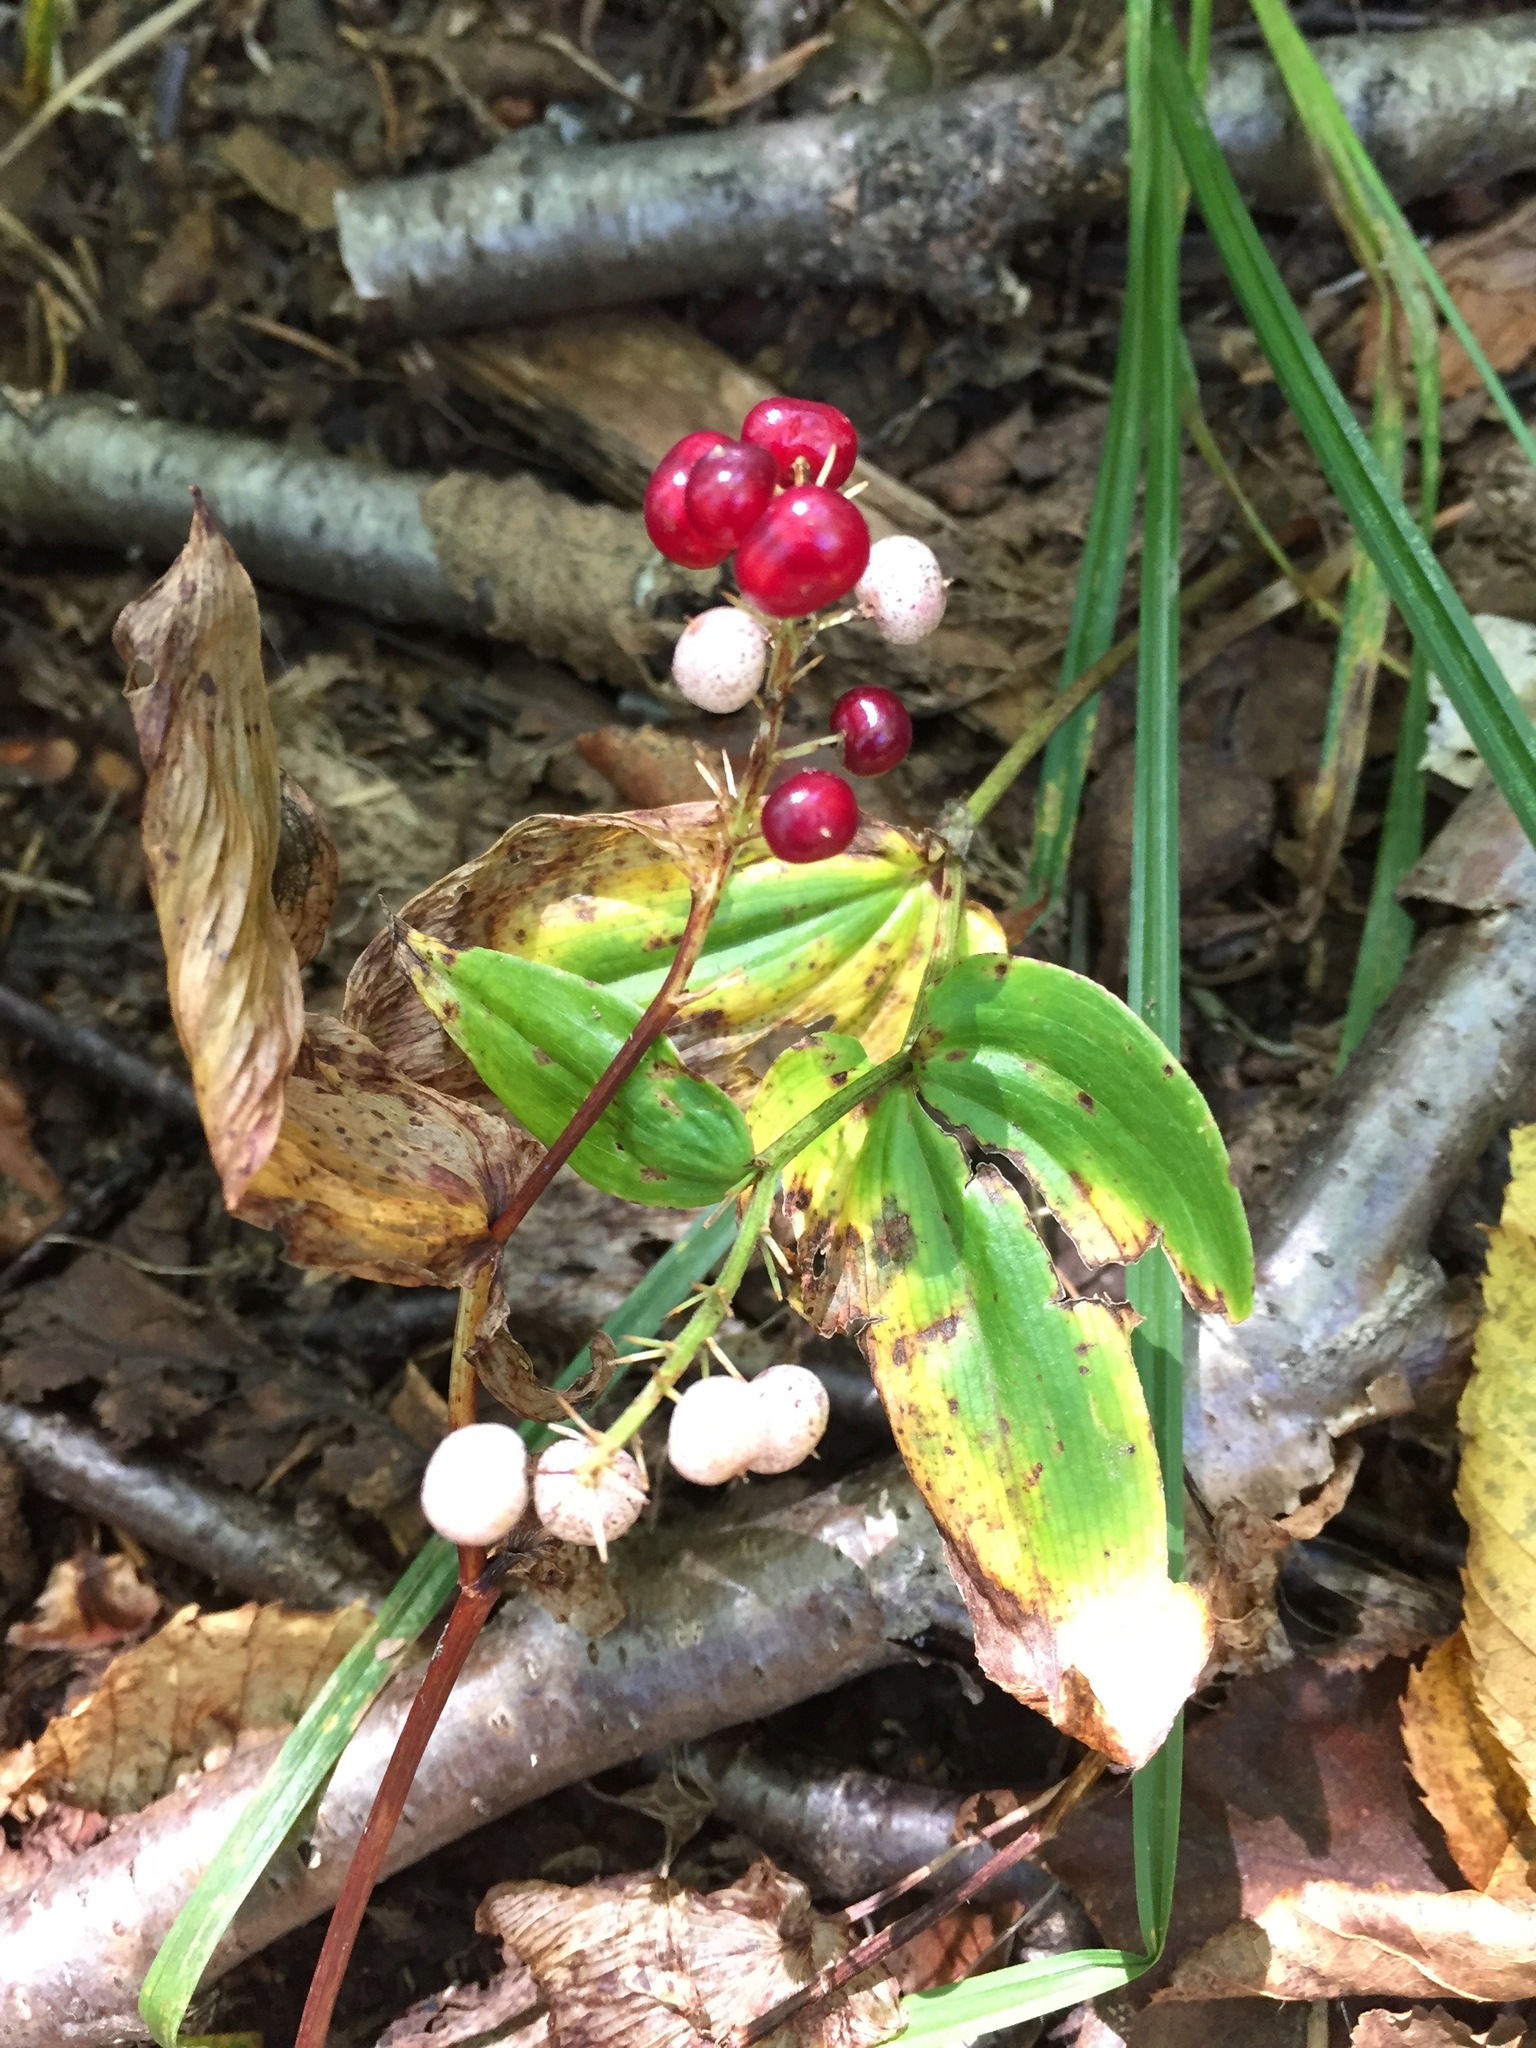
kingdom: Plantae
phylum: Tracheophyta
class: Liliopsida
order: Asparagales
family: Asparagaceae
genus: Maianthemum
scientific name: Maianthemum canadense
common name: False lily-of-the-valley
